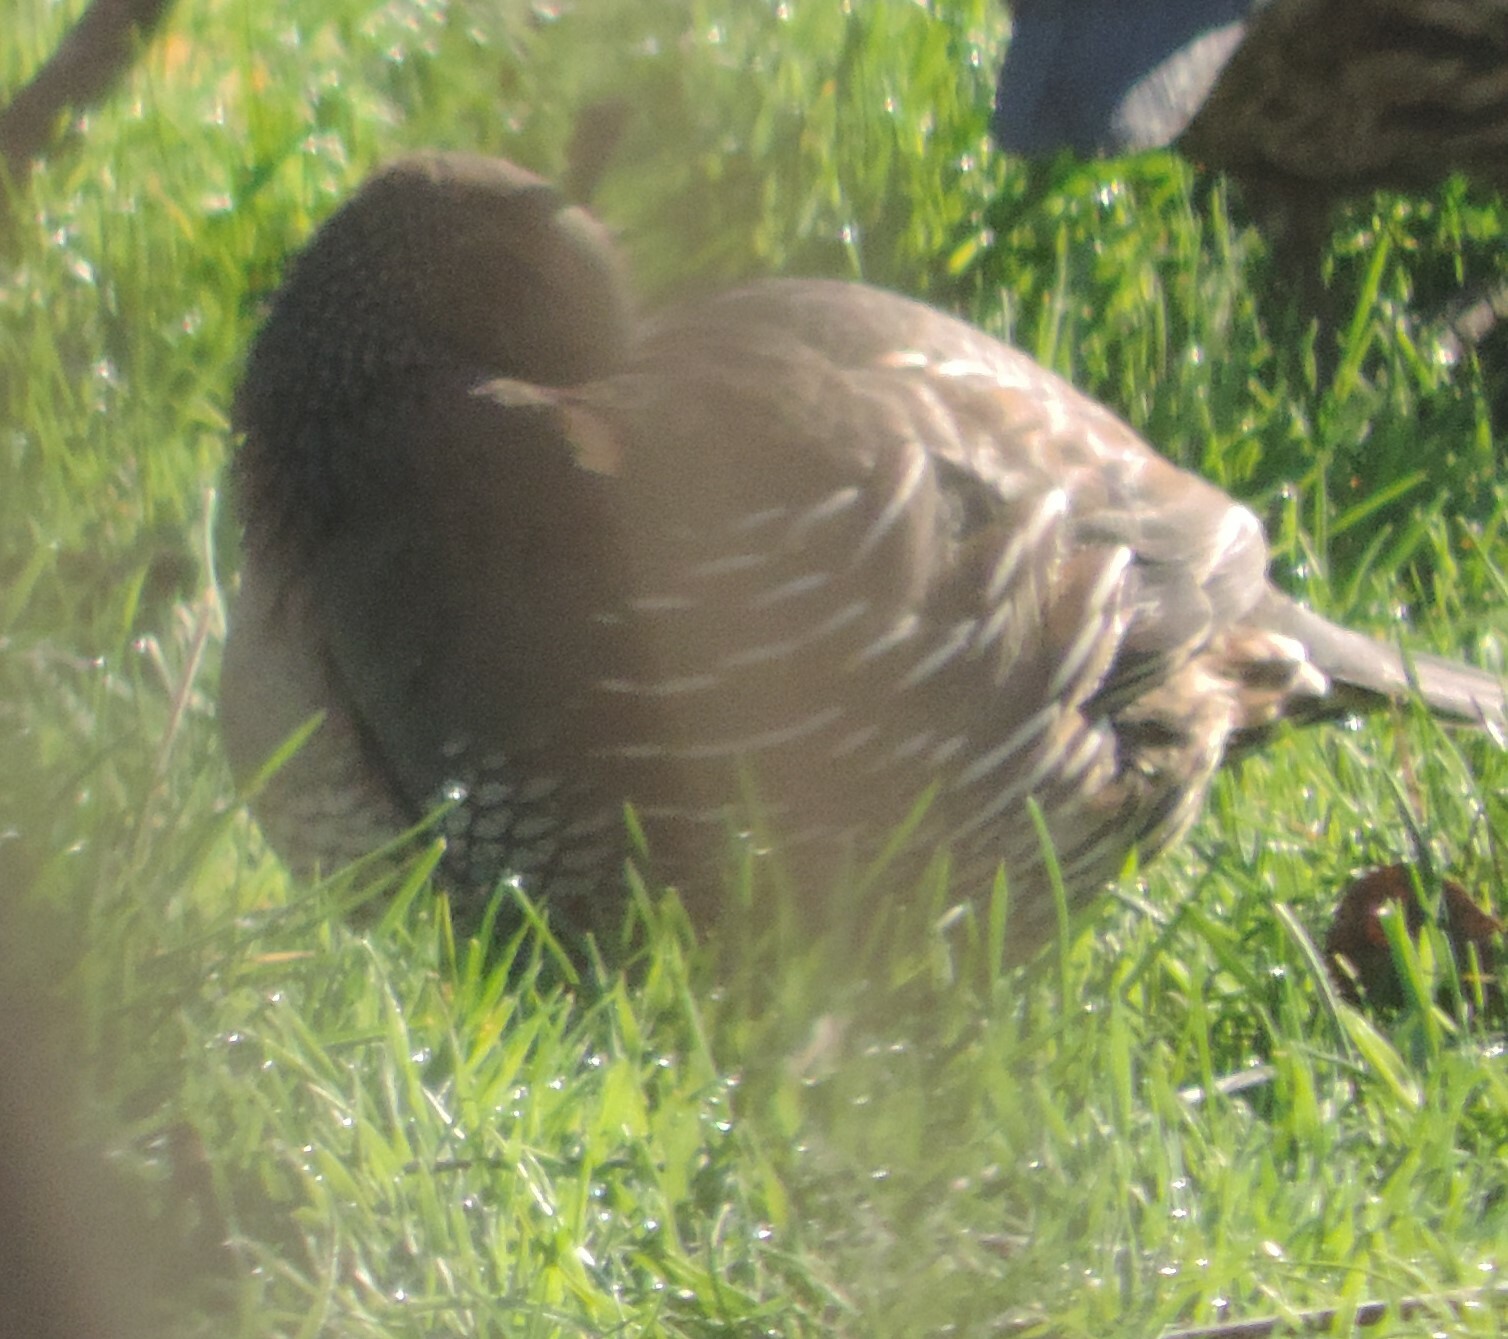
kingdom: Animalia
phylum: Chordata
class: Aves
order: Galliformes
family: Odontophoridae
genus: Callipepla
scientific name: Callipepla californica
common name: California quail
